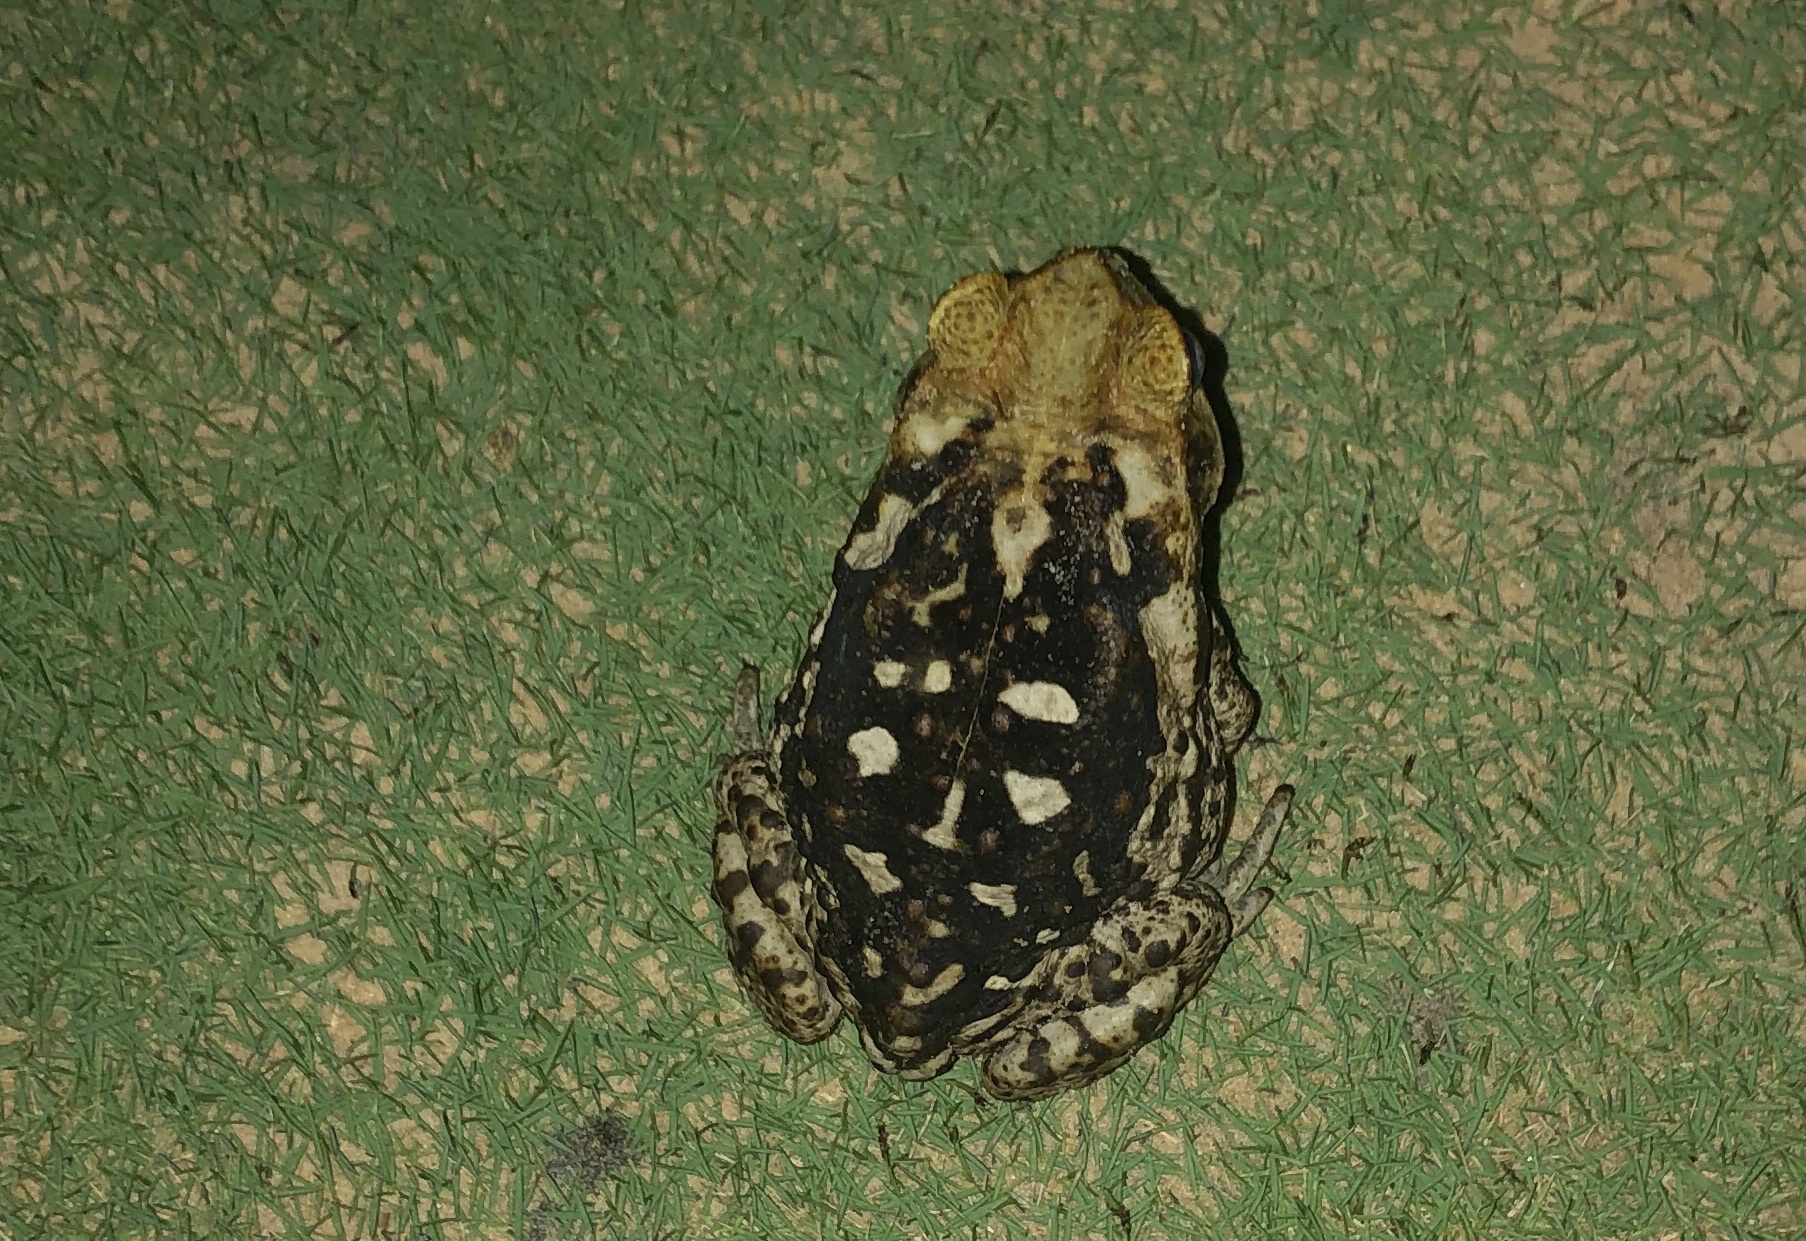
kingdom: Animalia
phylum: Chordata
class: Amphibia
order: Anura
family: Bufonidae
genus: Rhinella
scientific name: Rhinella diptycha
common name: Cope's toad
